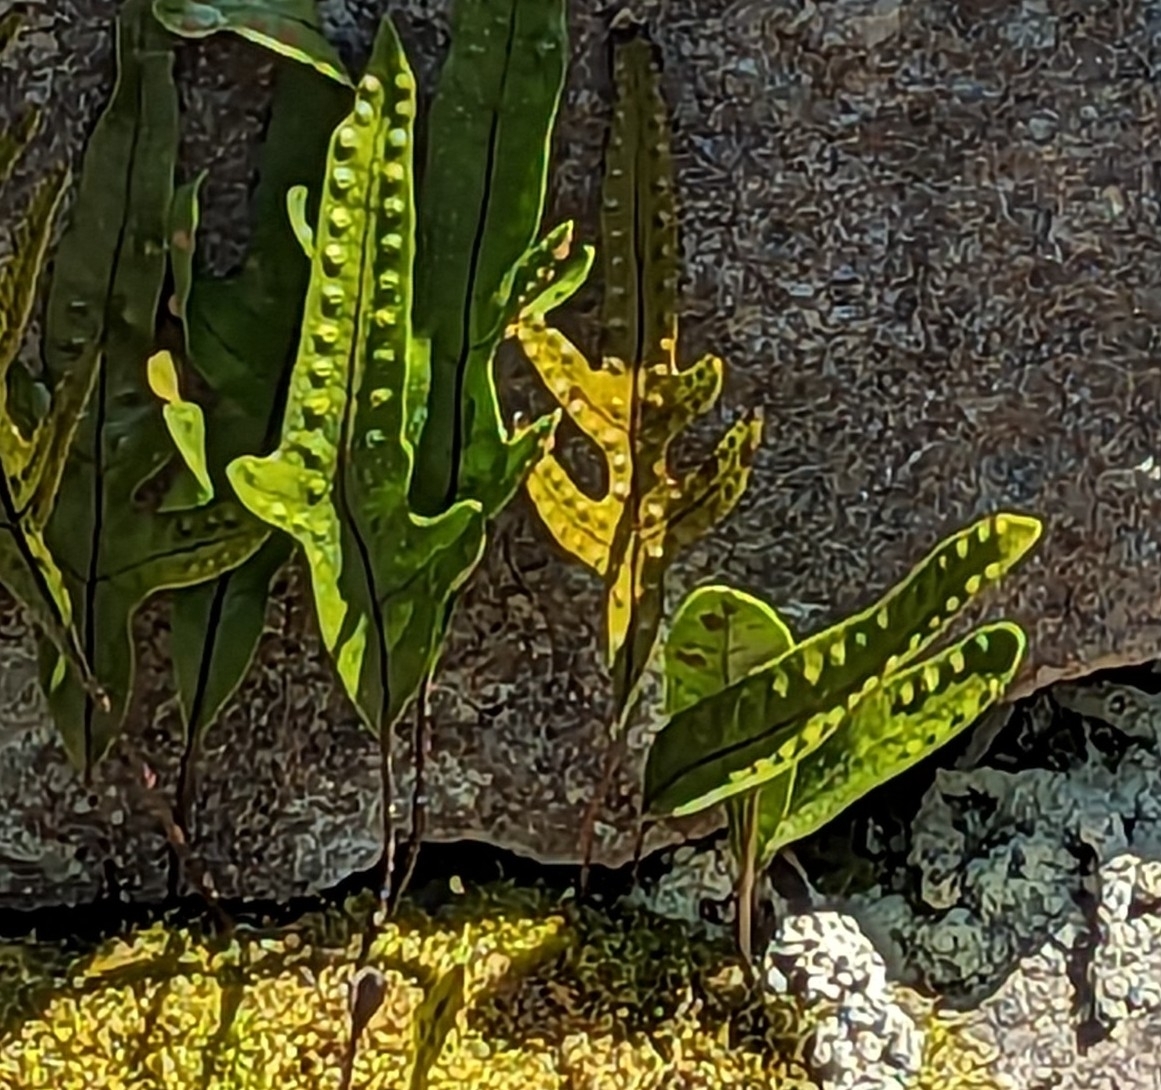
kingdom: Plantae
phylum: Tracheophyta
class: Polypodiopsida
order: Polypodiales
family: Polypodiaceae
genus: Lecanopteris
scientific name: Lecanopteris pustulata
